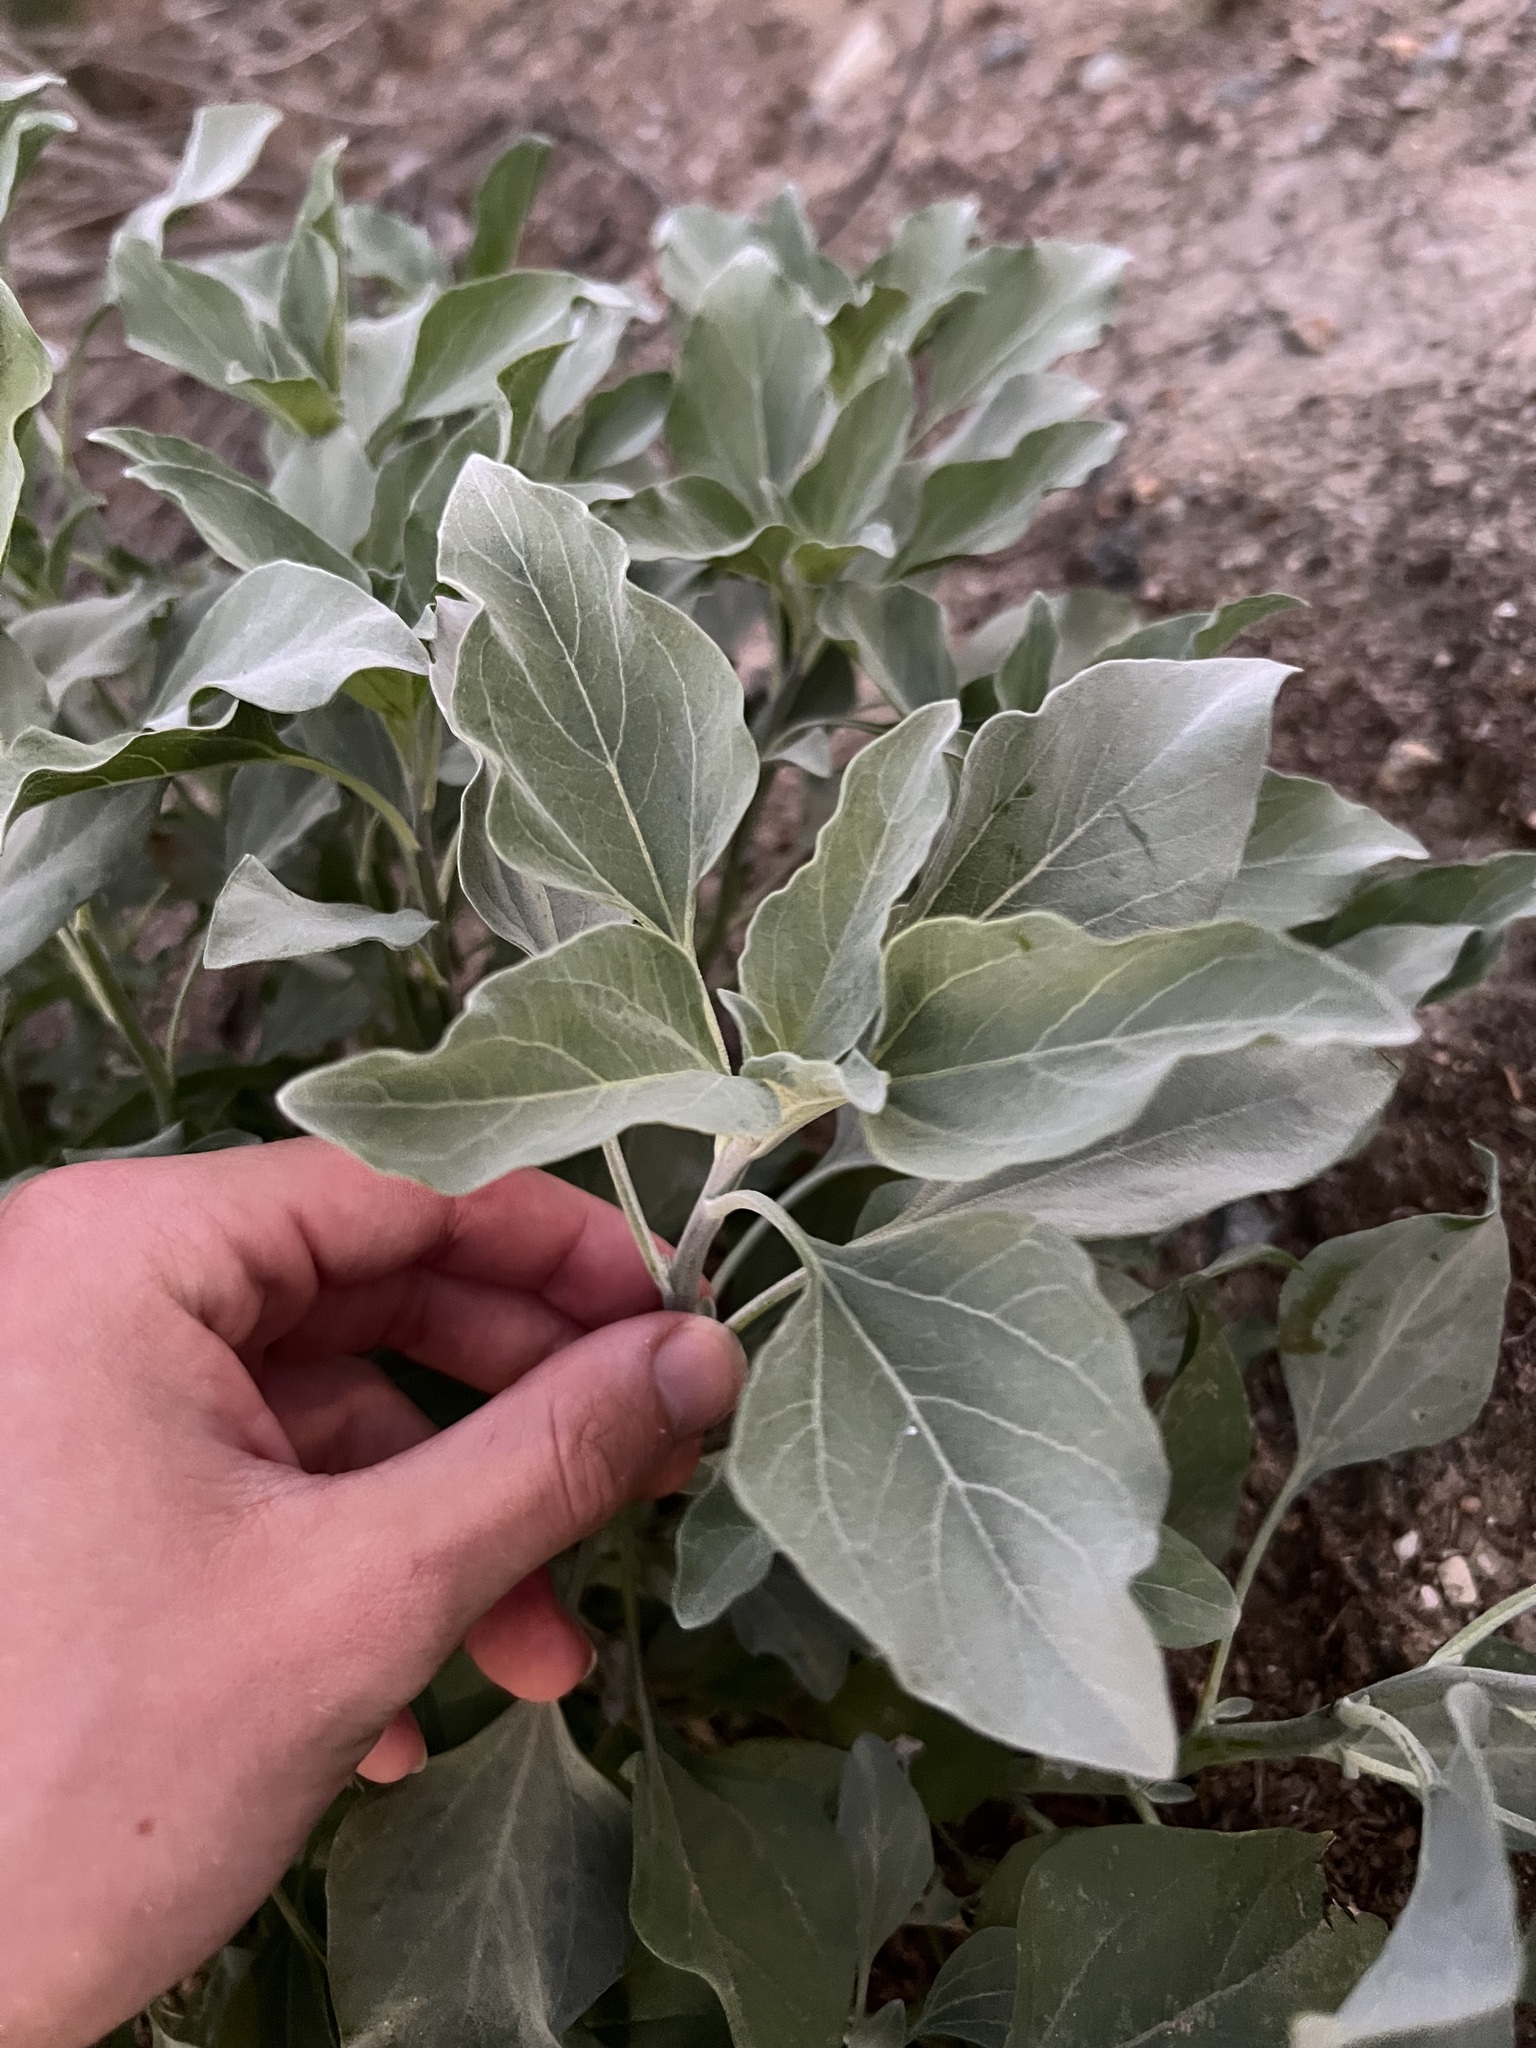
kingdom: Plantae
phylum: Tracheophyta
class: Magnoliopsida
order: Asterales
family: Asteraceae
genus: Encelia
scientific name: Encelia farinosa
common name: Brittlebush
